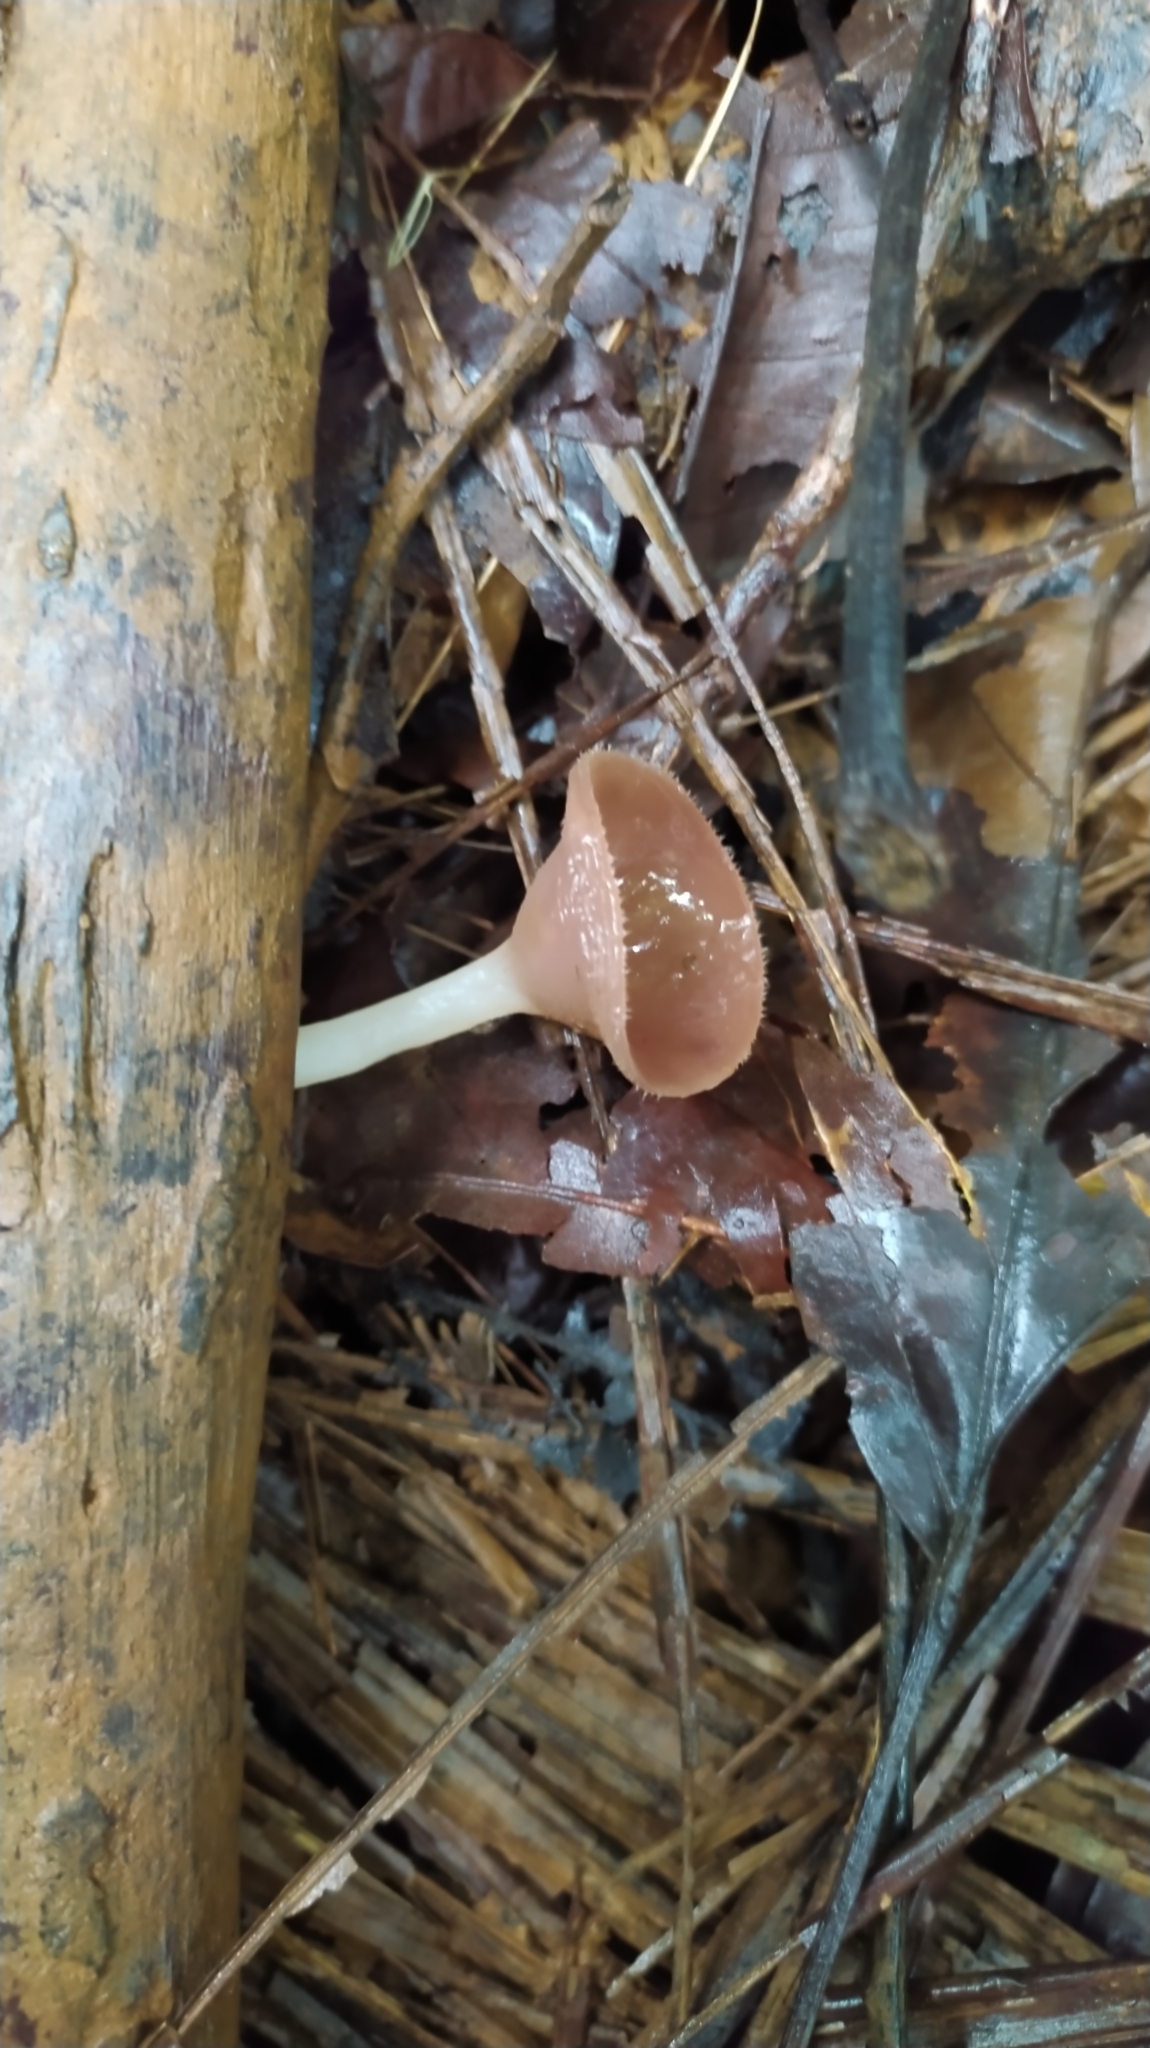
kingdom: Fungi
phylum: Ascomycota
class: Pezizomycetes
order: Pezizales
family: Sarcoscyphaceae
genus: Cookeina
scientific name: Cookeina speciosa
